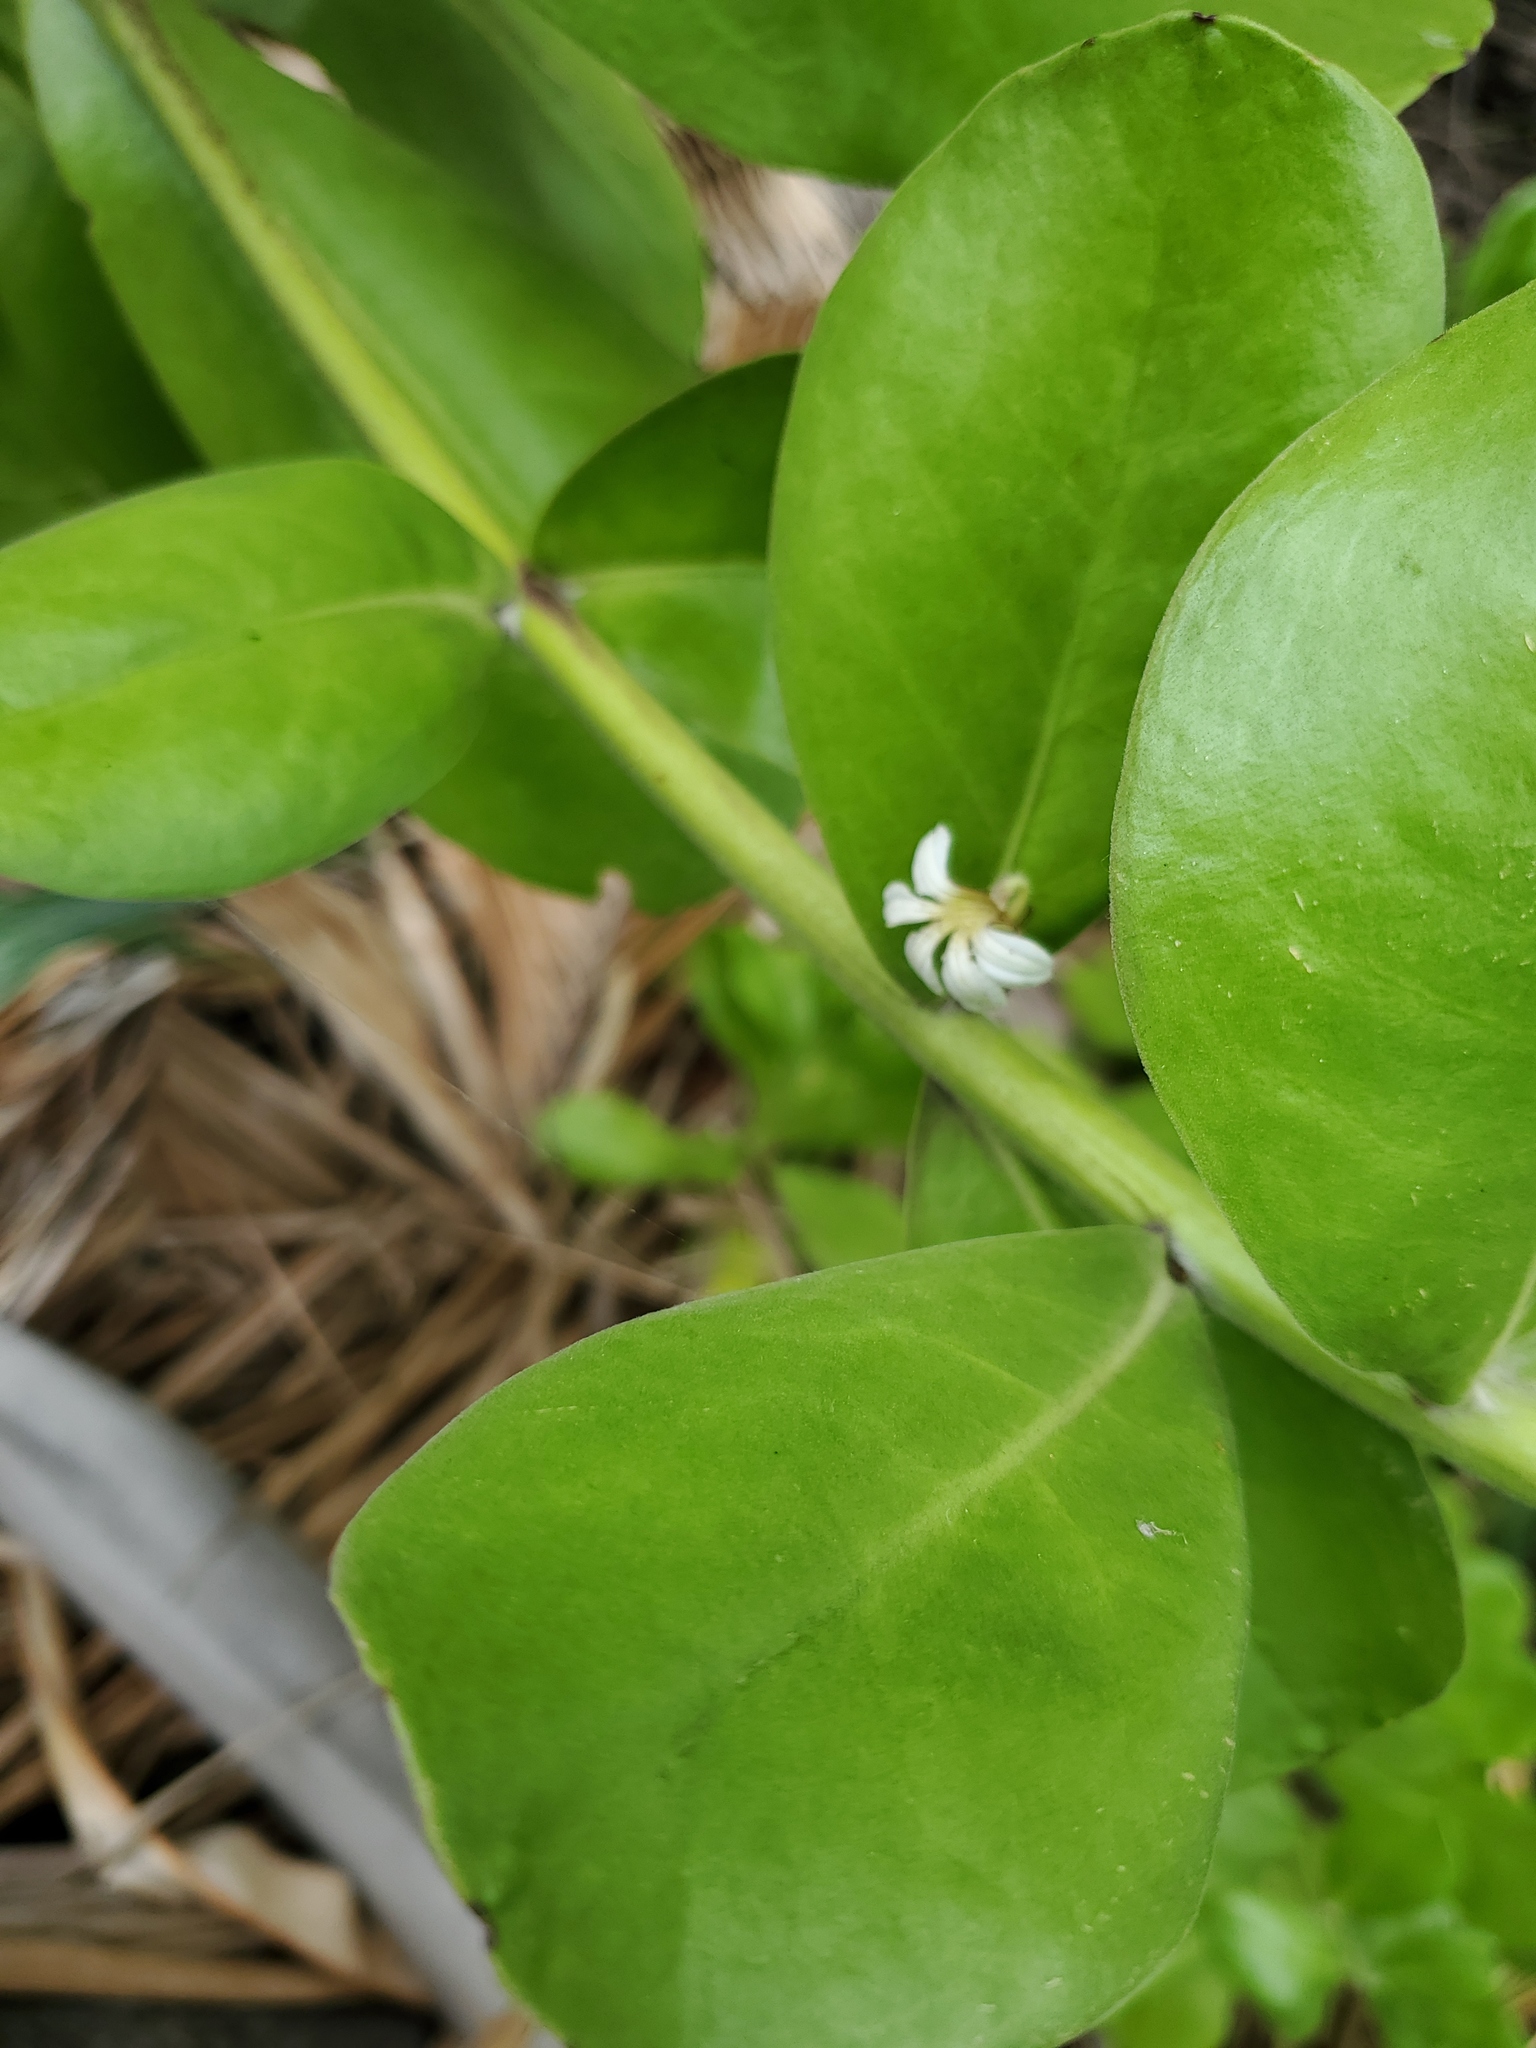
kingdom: Plantae
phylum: Tracheophyta
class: Magnoliopsida
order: Asterales
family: Goodeniaceae
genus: Scaevola
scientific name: Scaevola taccada
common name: Sea lettucetree
